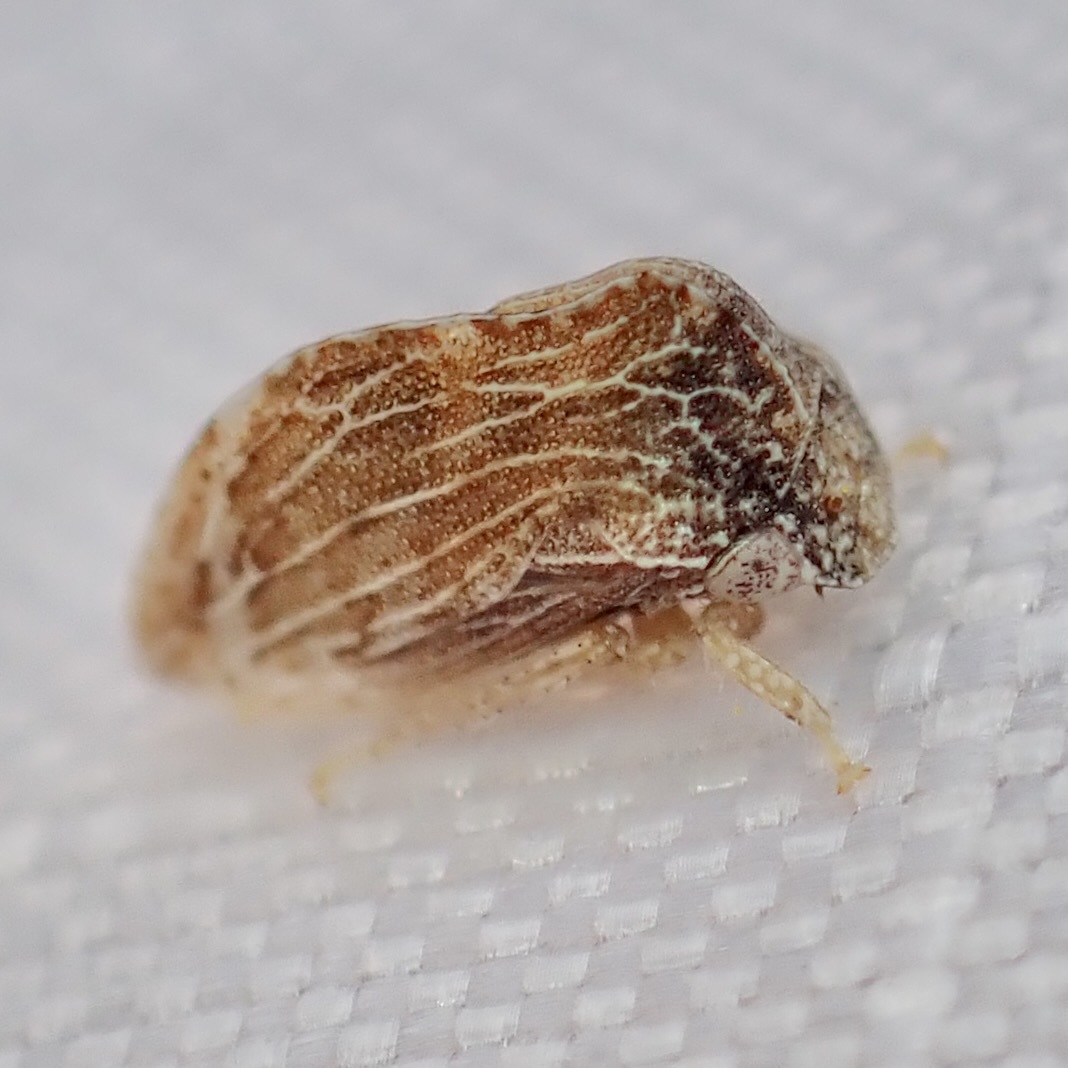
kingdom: Animalia
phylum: Arthropoda
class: Insecta
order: Hemiptera
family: Membracidae
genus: Publilia
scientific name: Publilia erecta
